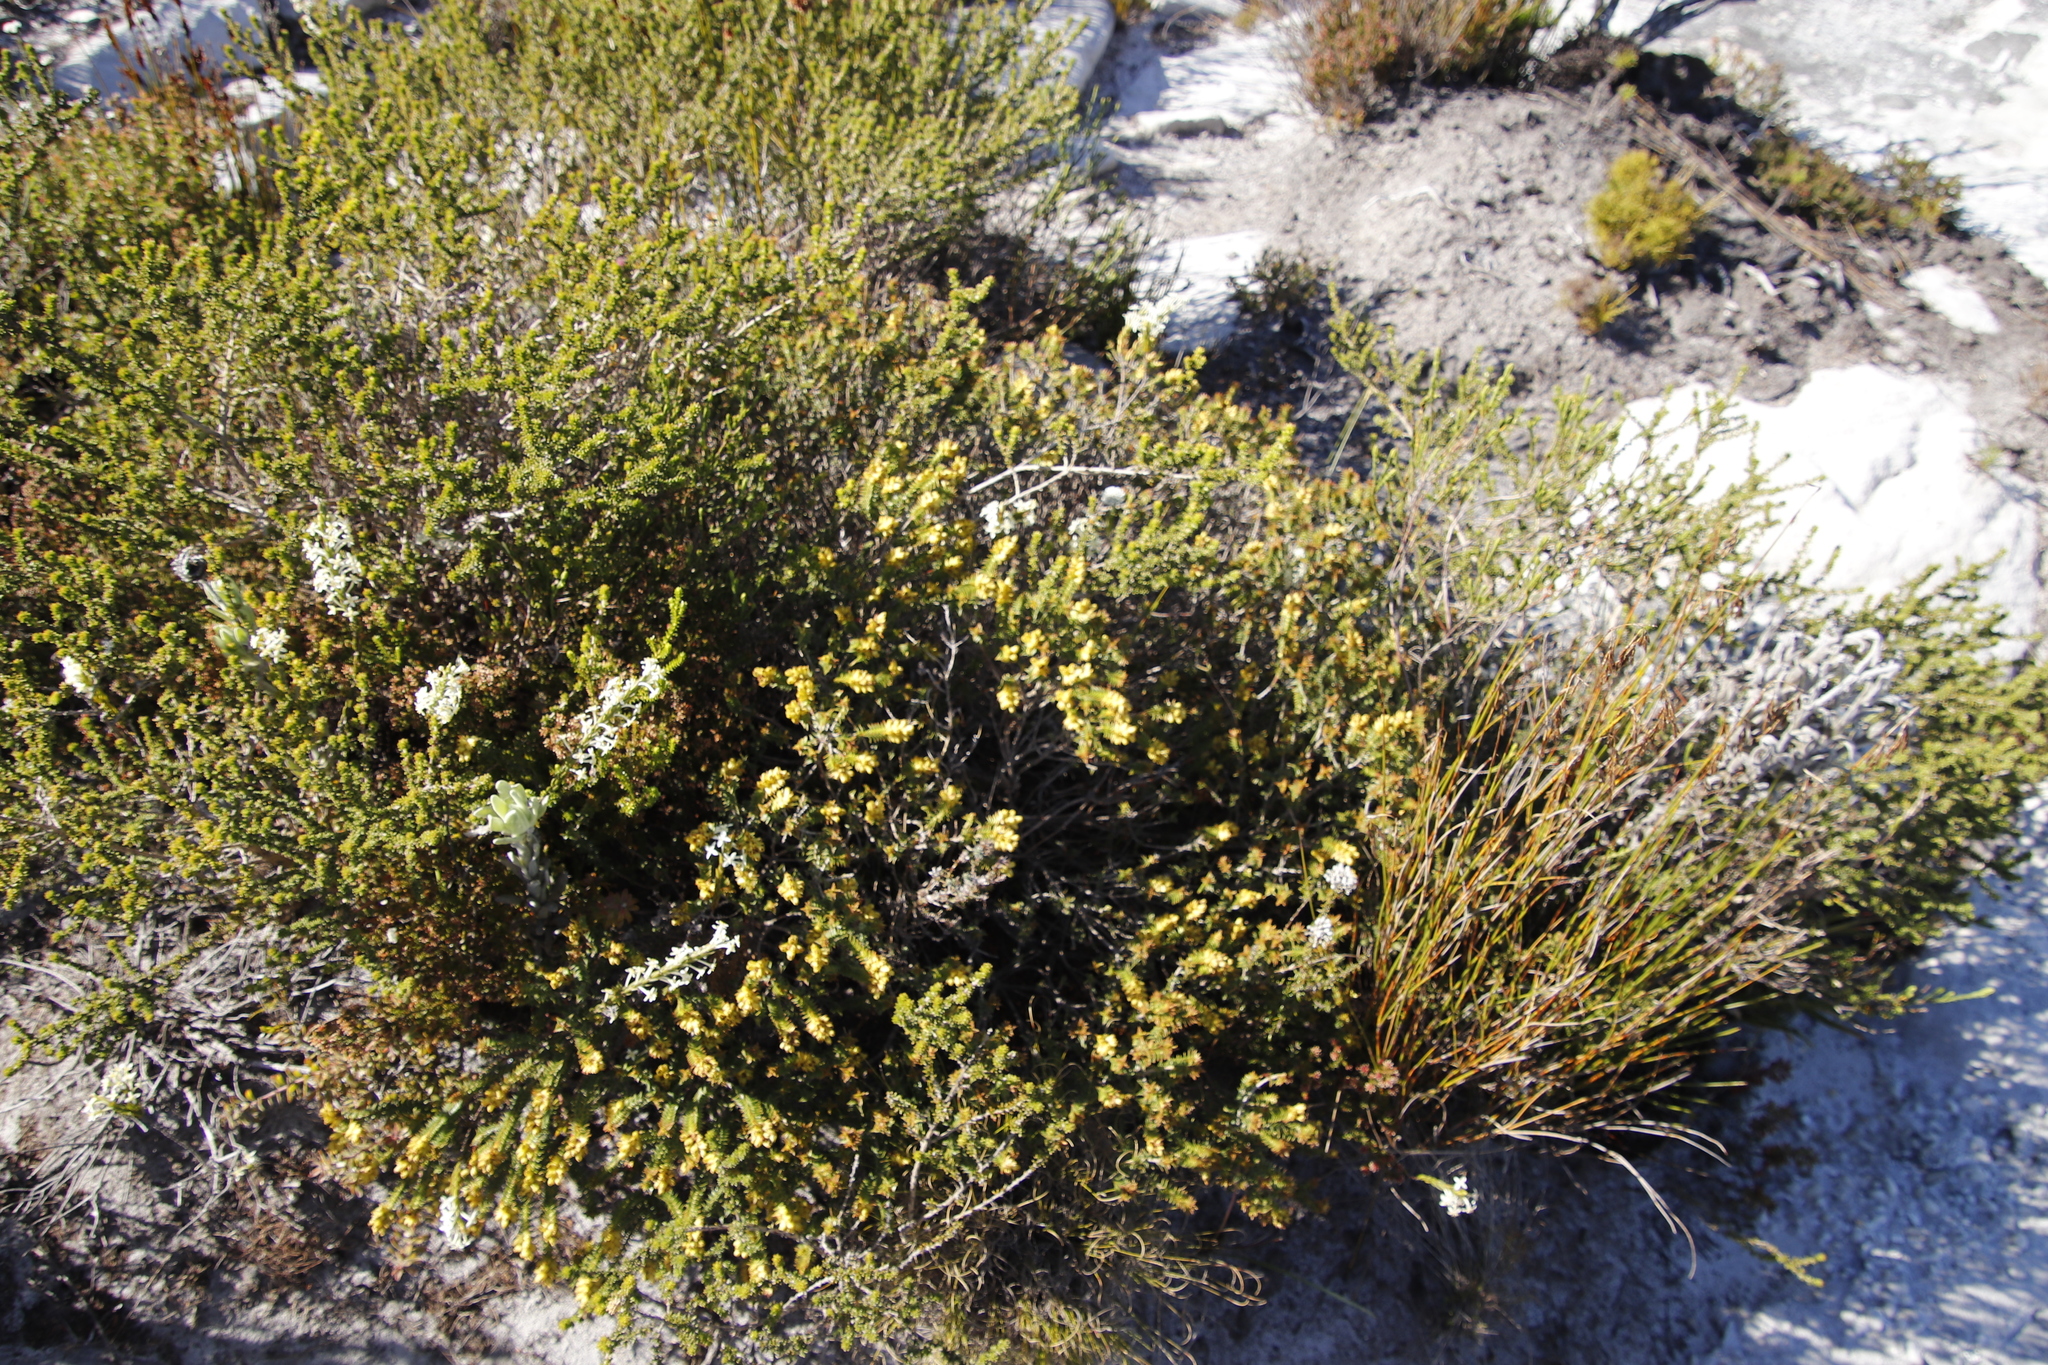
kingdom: Plantae
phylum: Tracheophyta
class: Magnoliopsida
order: Myrtales
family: Penaeaceae
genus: Penaea
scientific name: Penaea mucronata
